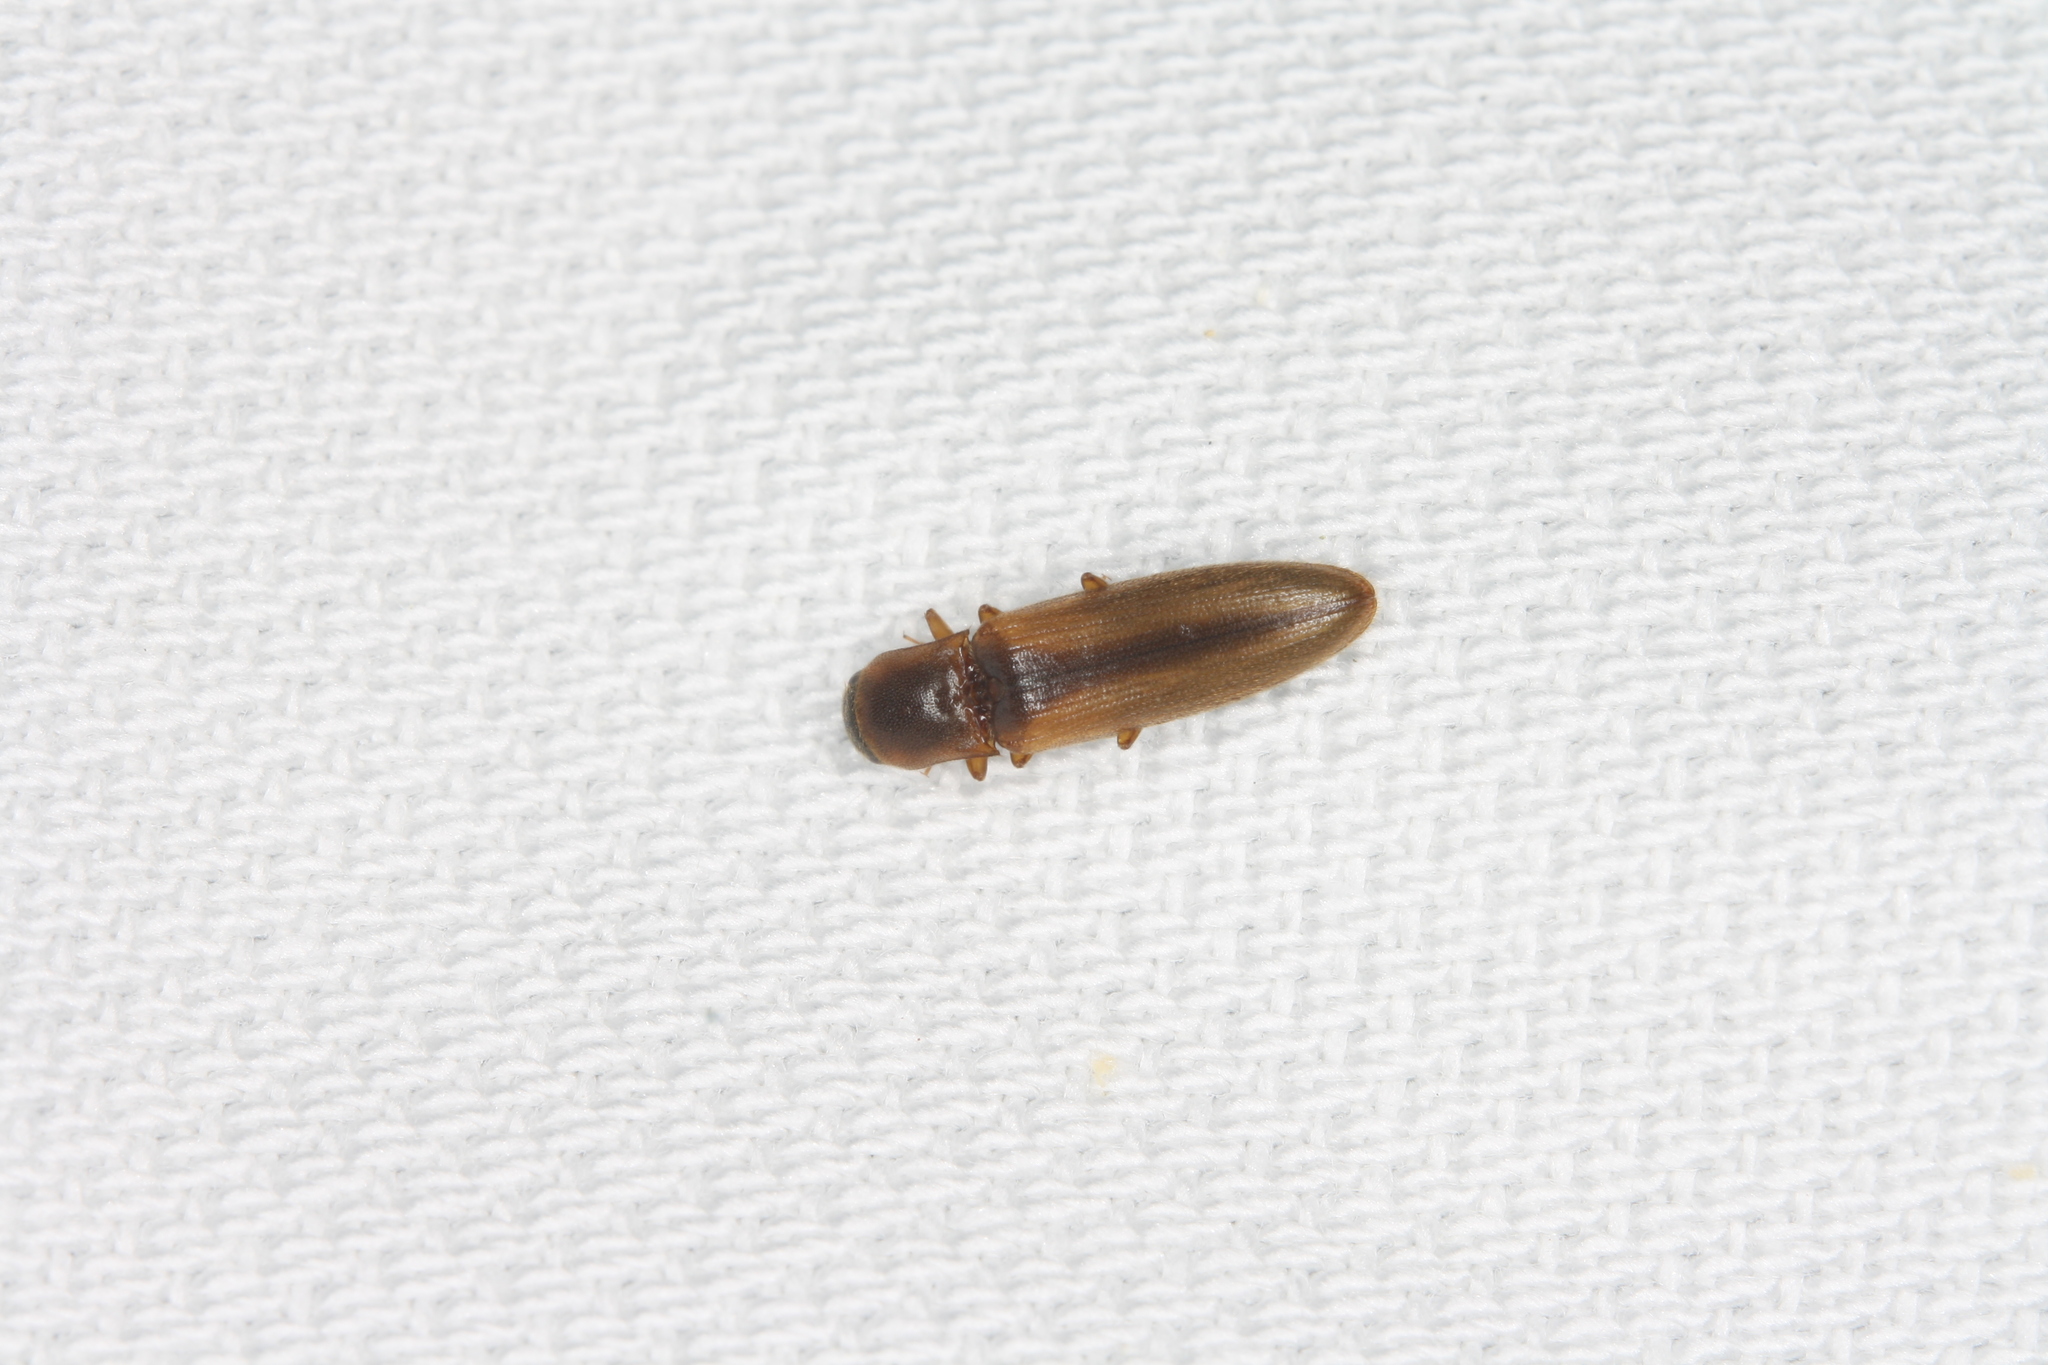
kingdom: Animalia
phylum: Arthropoda
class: Insecta
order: Coleoptera
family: Elateridae
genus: Dalopius
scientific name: Dalopius marginatus
